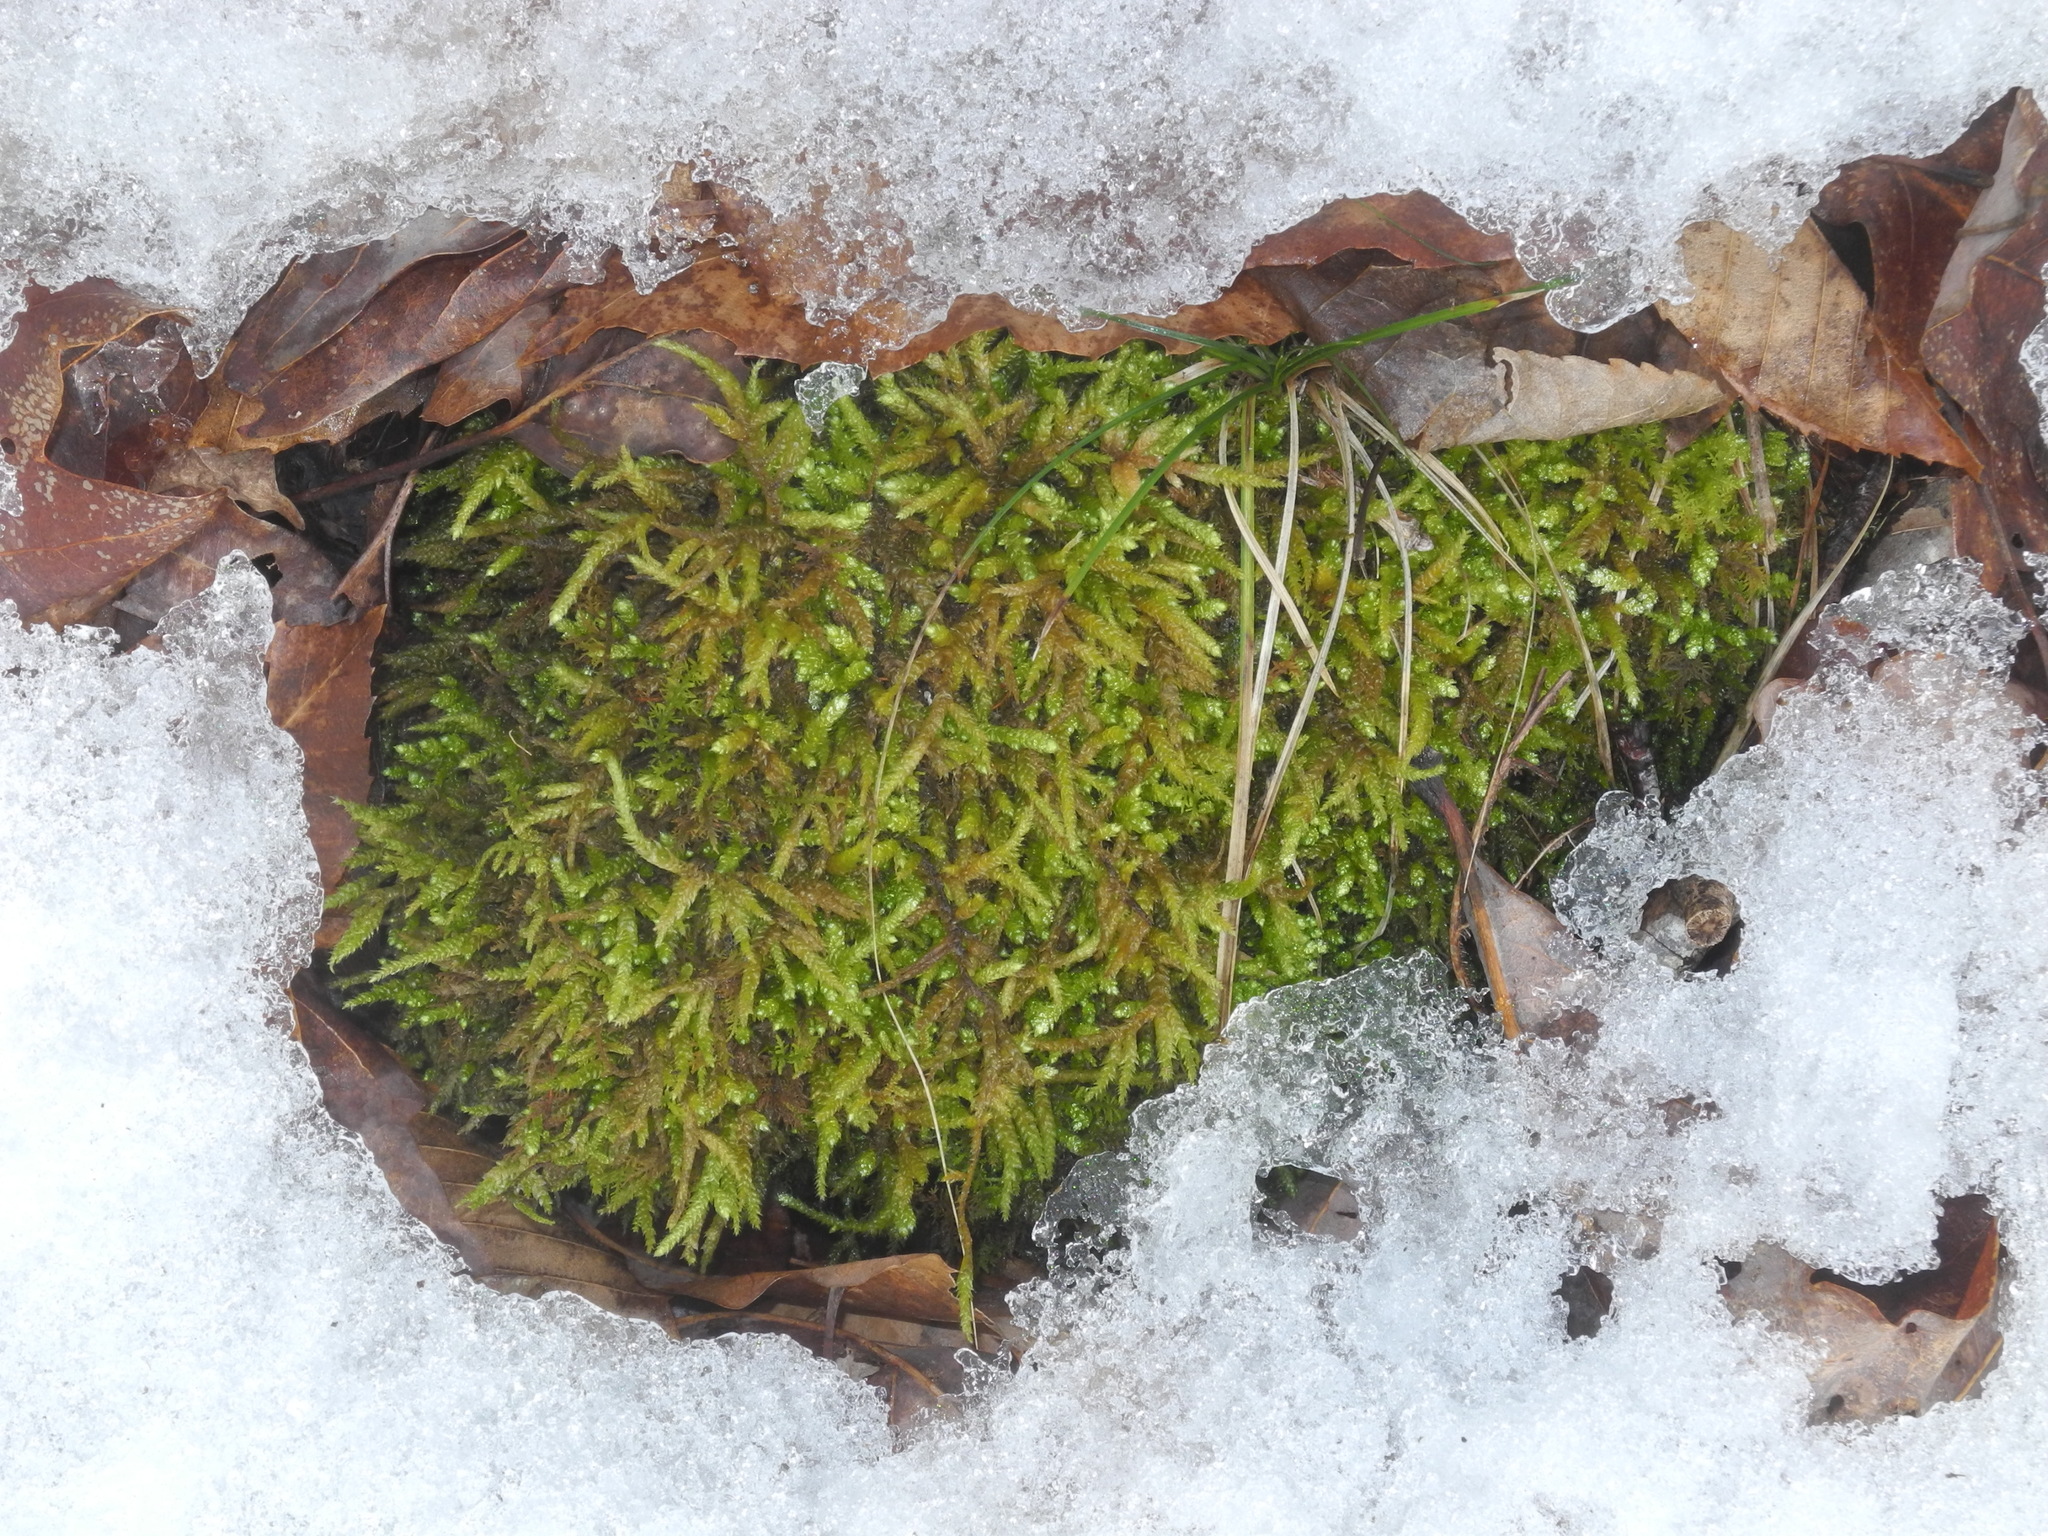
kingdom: Plantae
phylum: Bryophyta
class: Bryopsida
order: Hypnales
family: Brachytheciaceae
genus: Bryoandersonia
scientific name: Bryoandersonia illecebra
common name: Spoon-leaved moss
